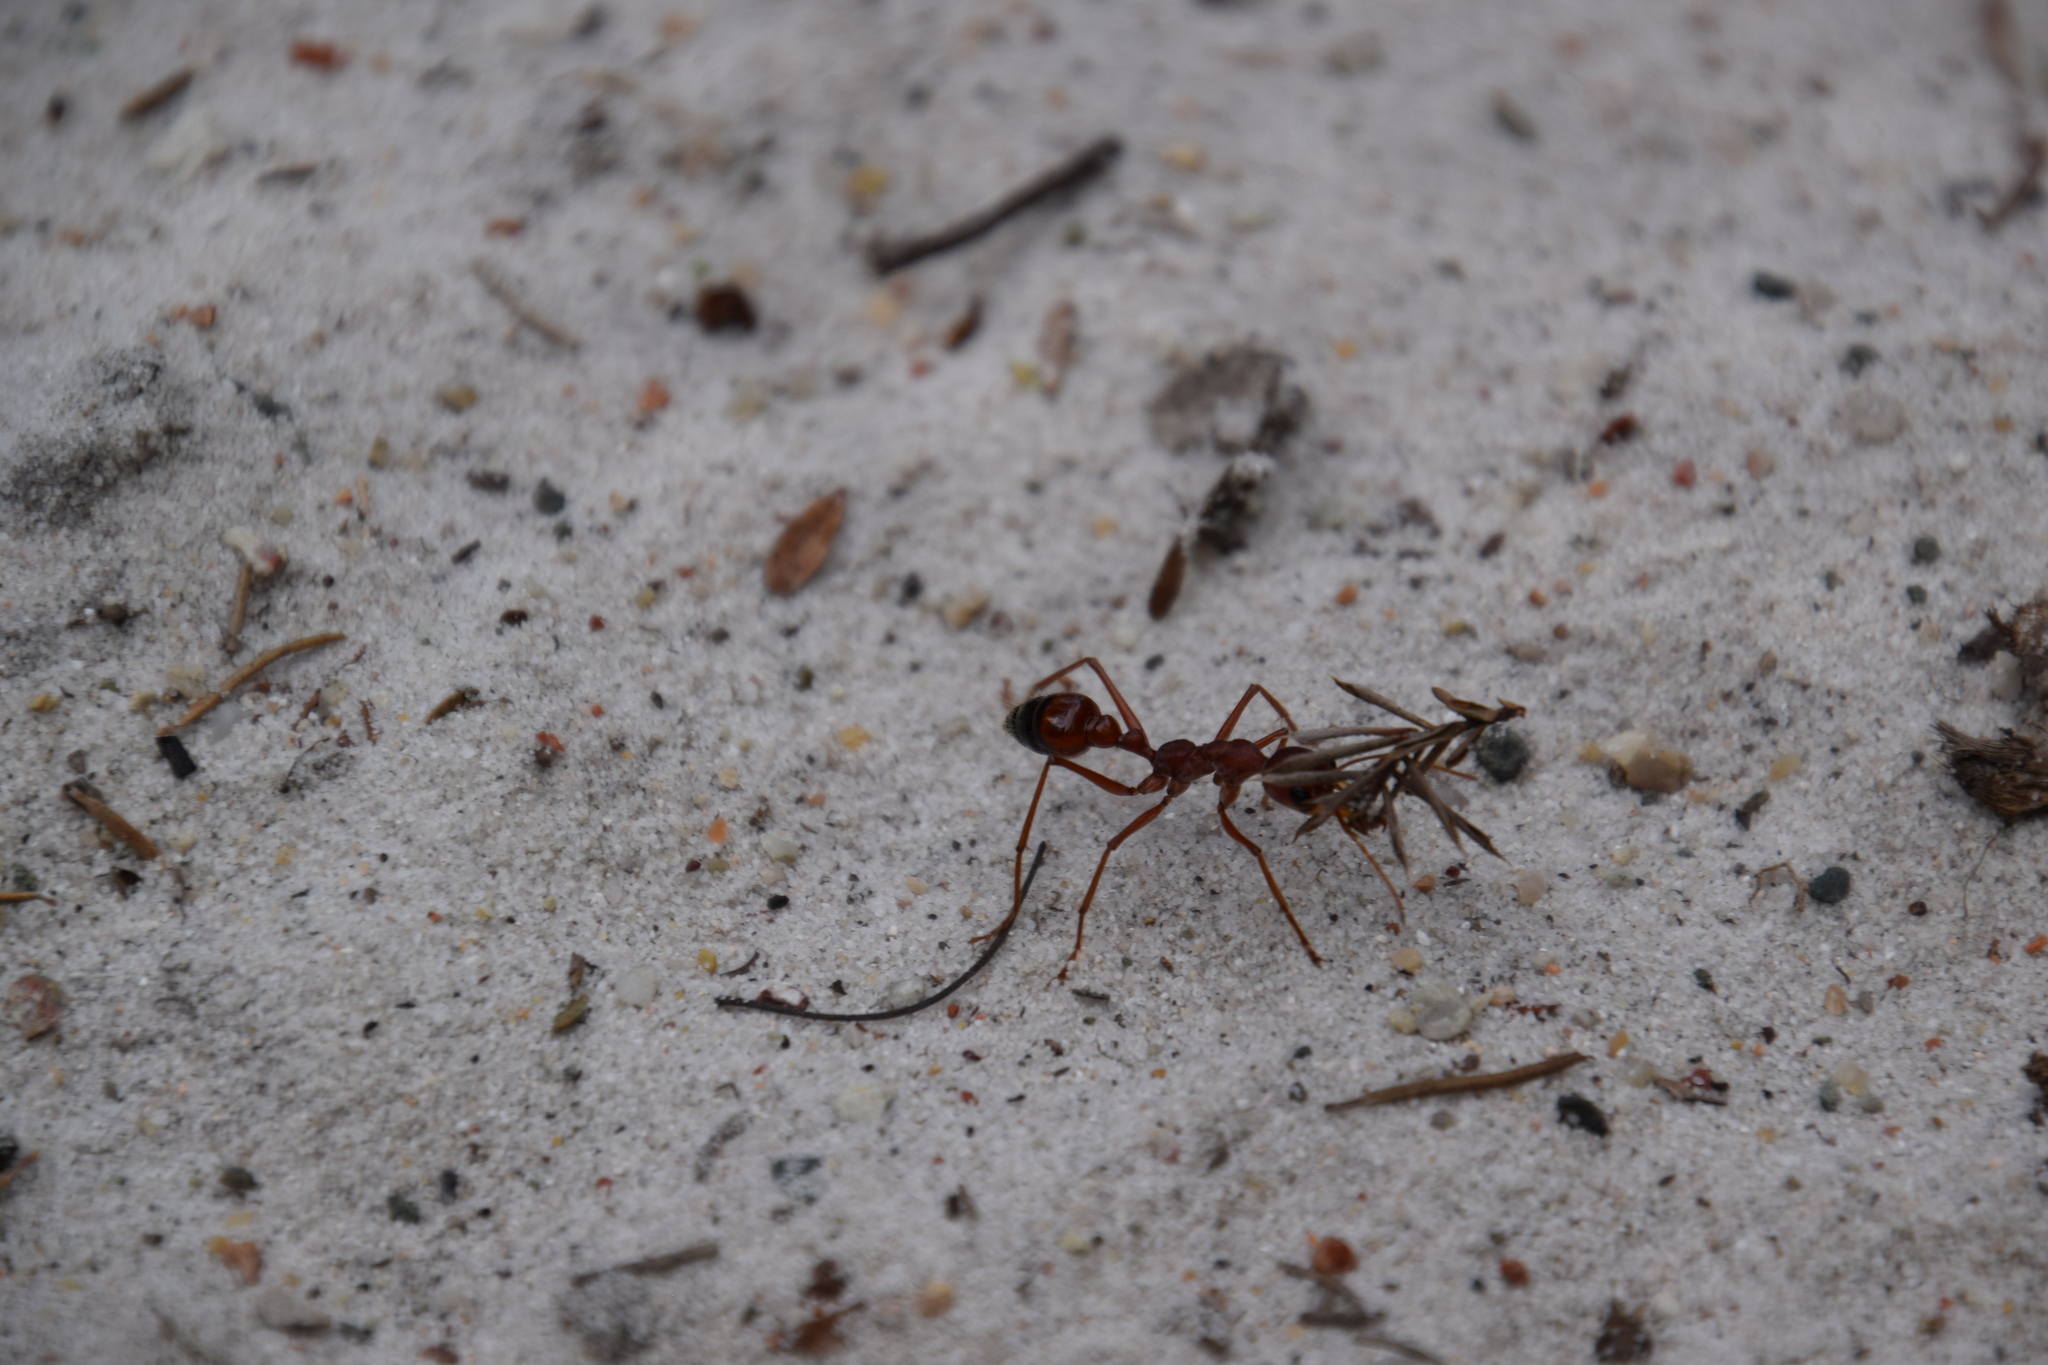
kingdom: Animalia
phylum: Arthropoda
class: Insecta
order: Hymenoptera
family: Formicidae
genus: Myrmecia
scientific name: Myrmecia gulosa
